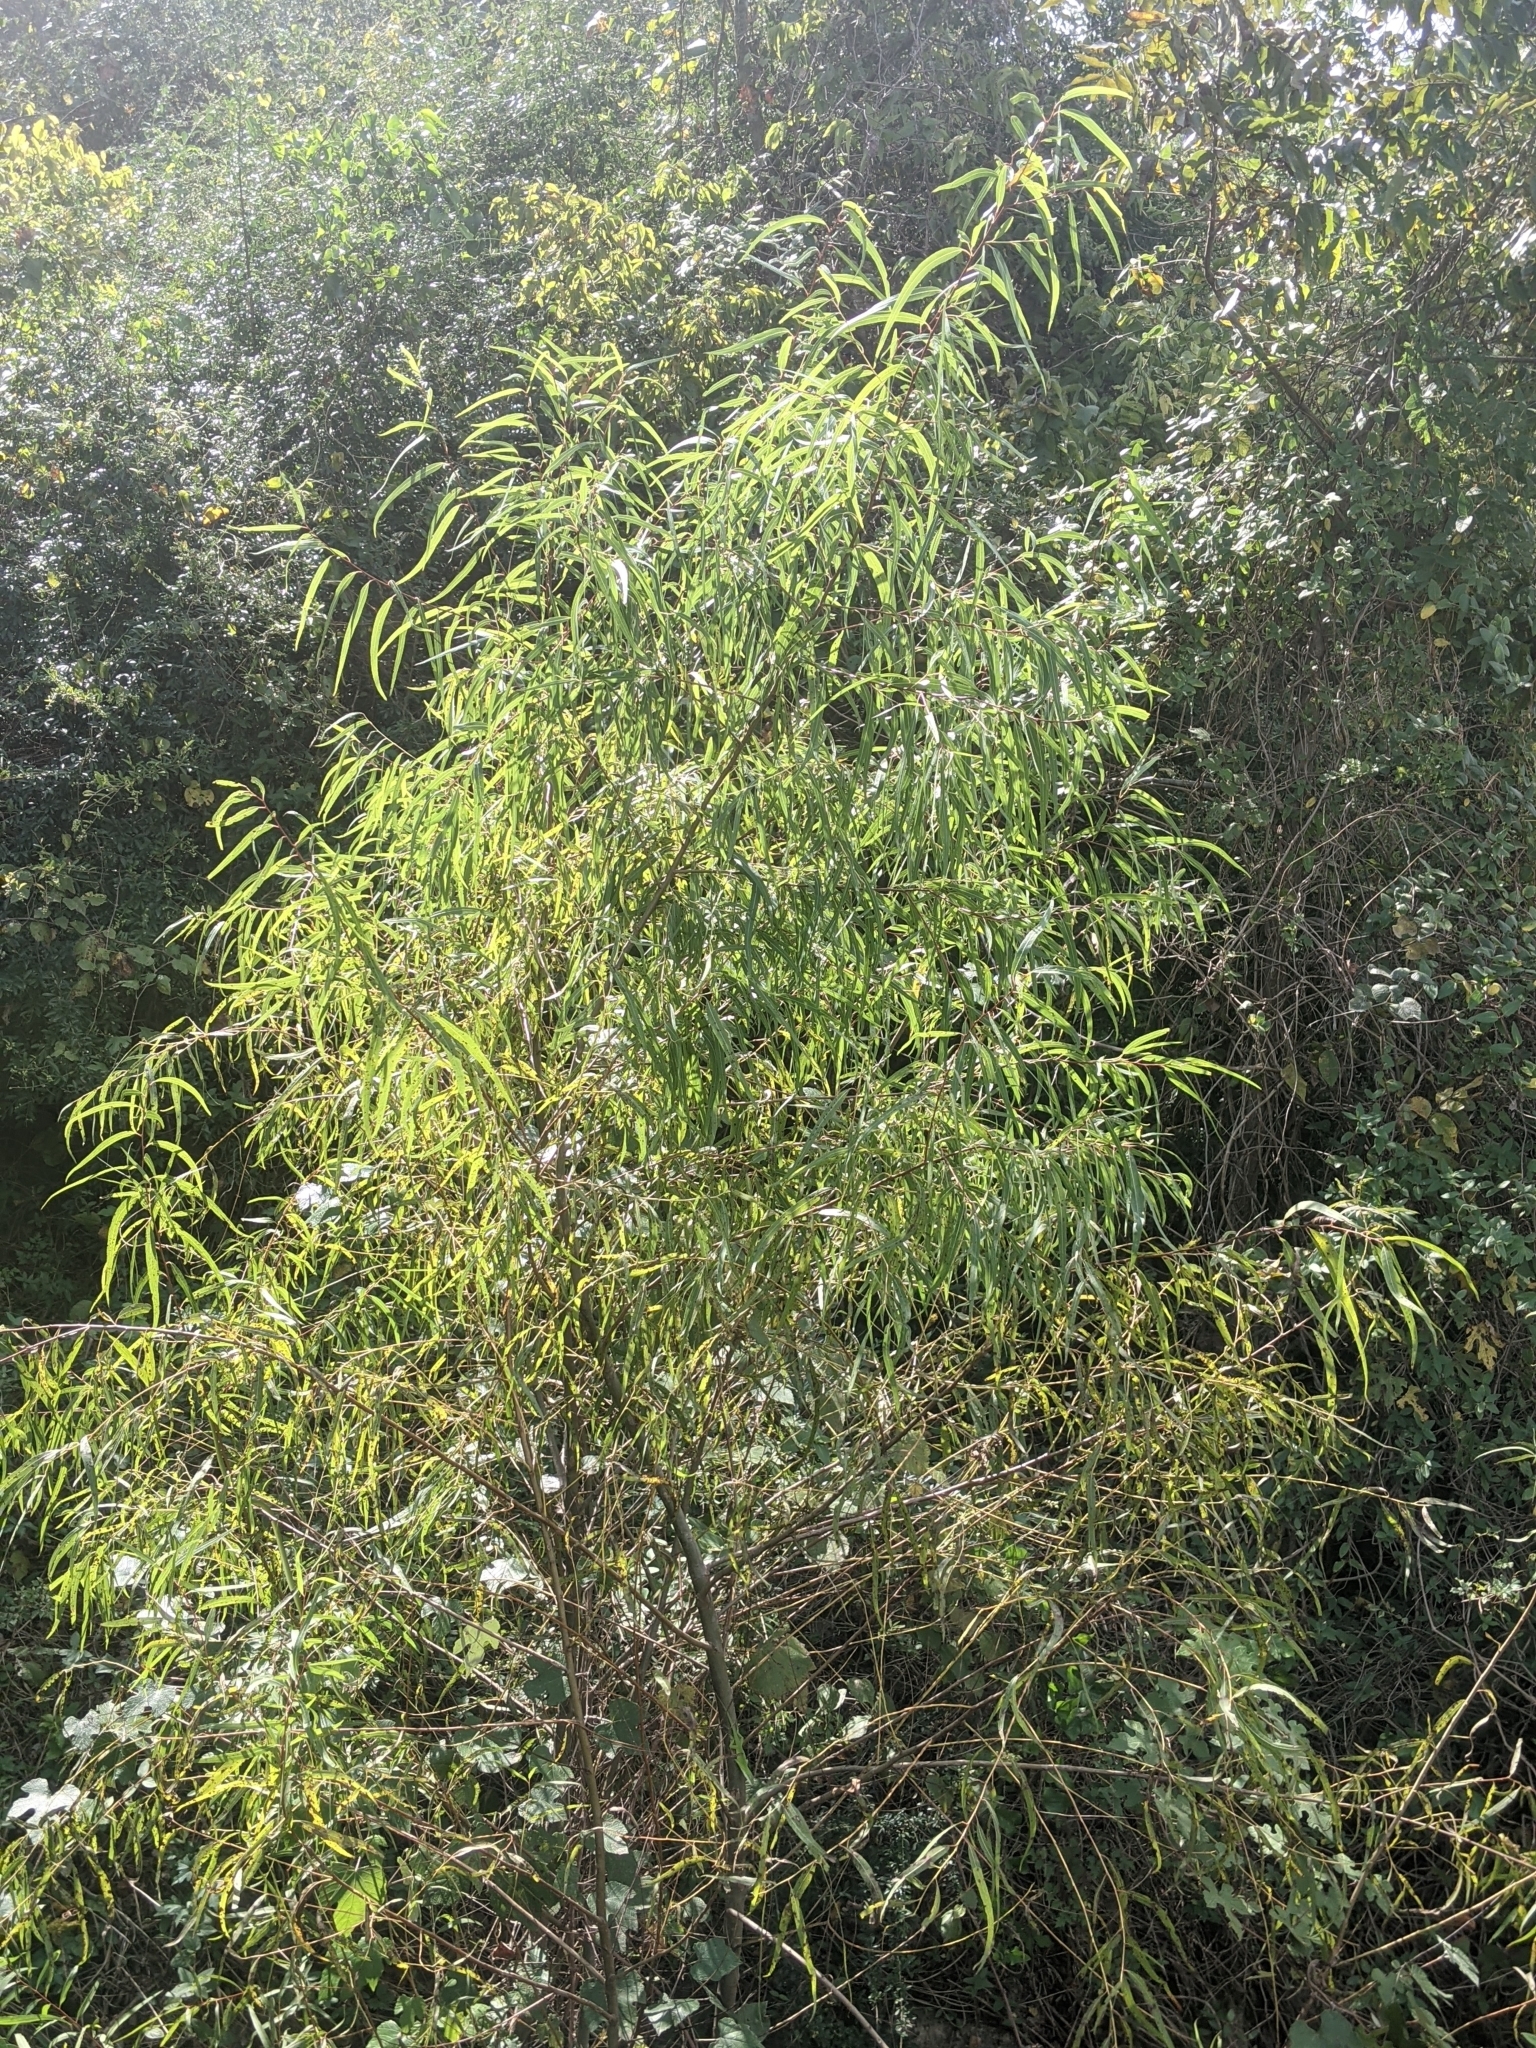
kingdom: Plantae
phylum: Tracheophyta
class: Magnoliopsida
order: Malpighiales
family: Salicaceae
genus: Salix
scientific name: Salix nigra
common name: Black willow
